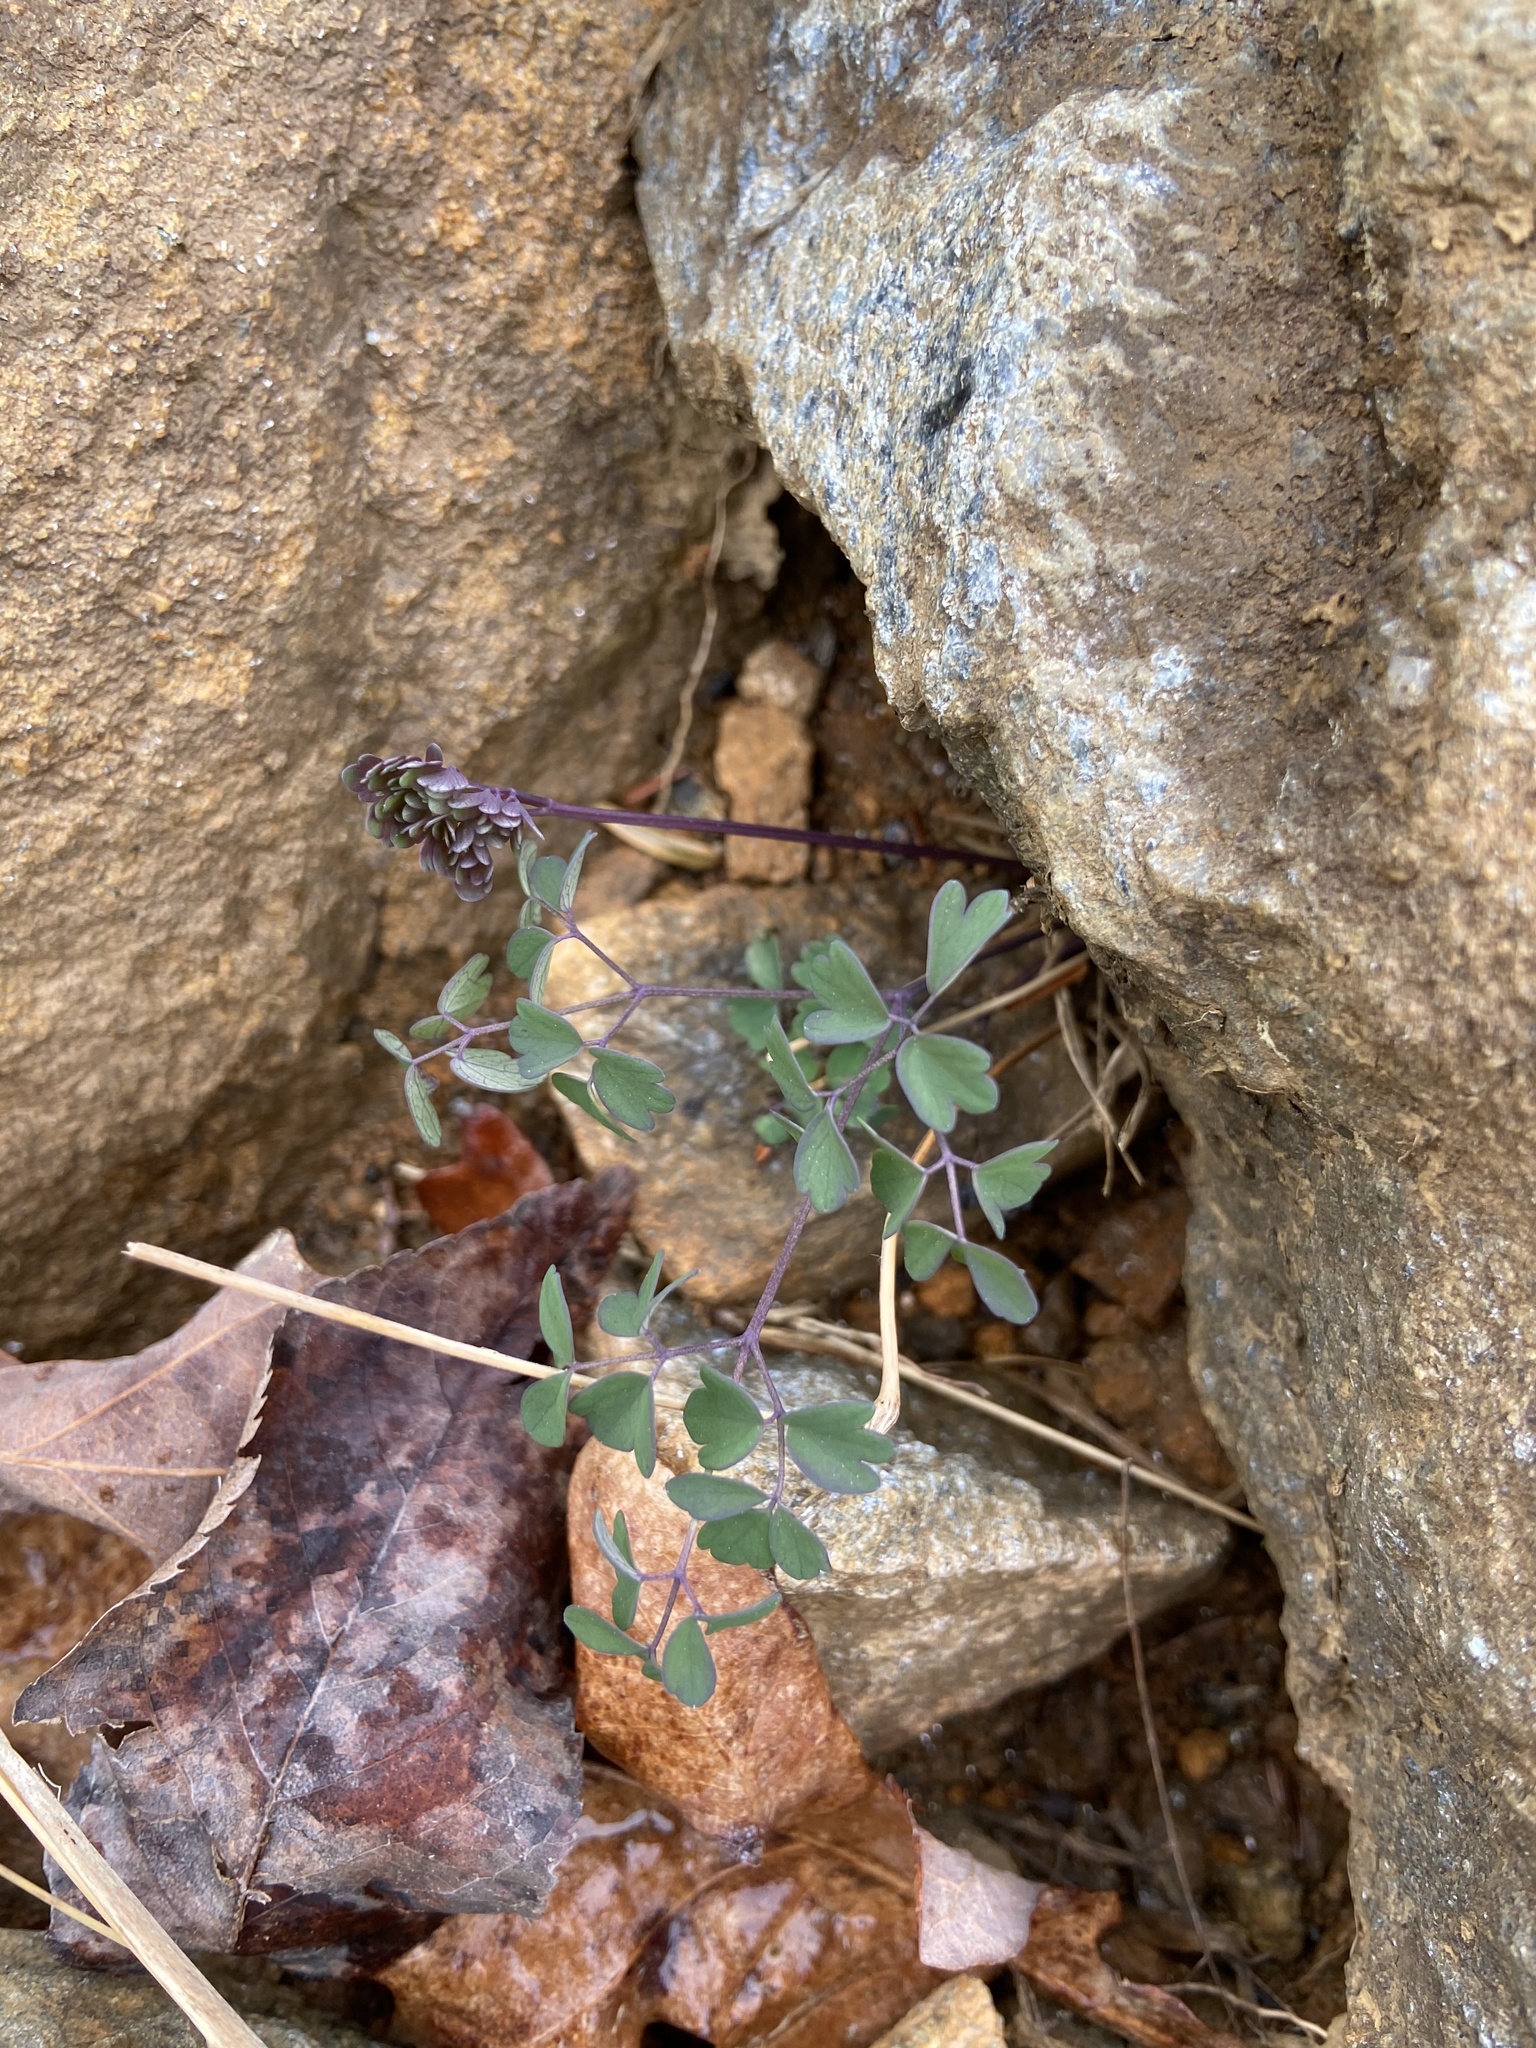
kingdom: Plantae
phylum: Tracheophyta
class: Magnoliopsida
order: Ranunculales
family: Ranunculaceae
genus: Thalictrum
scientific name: Thalictrum macrostylum
